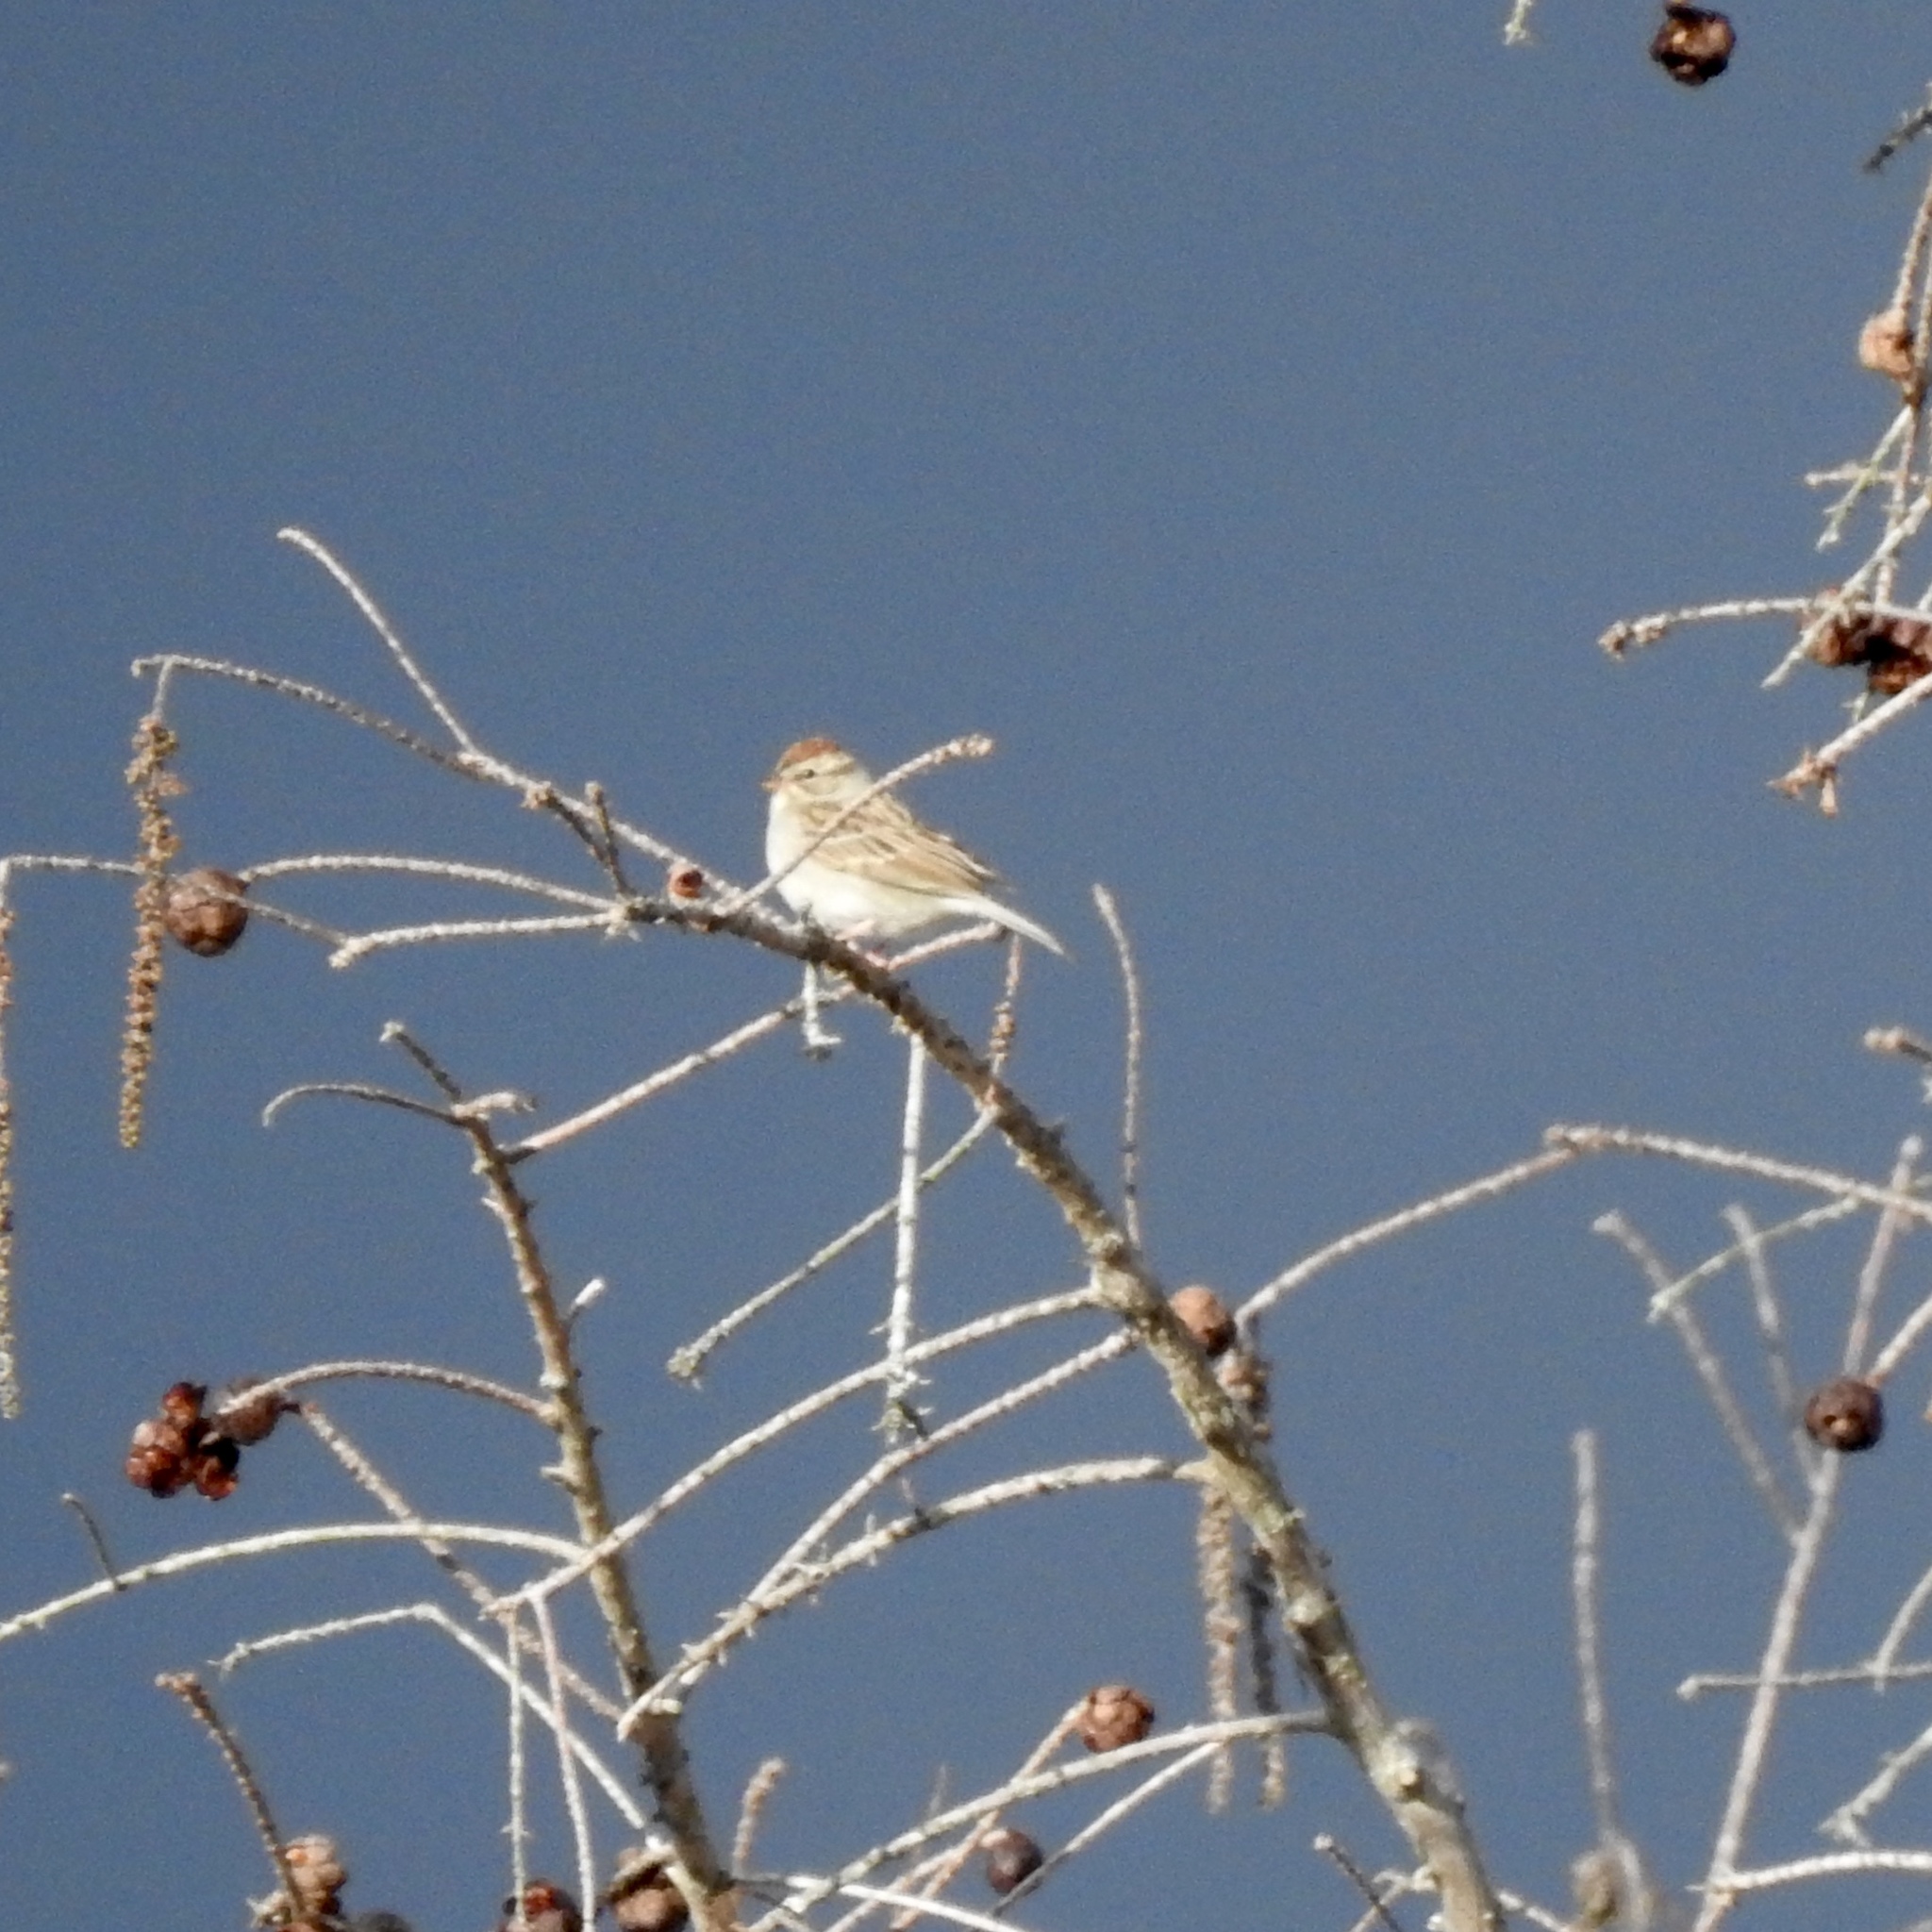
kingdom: Animalia
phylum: Chordata
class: Aves
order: Passeriformes
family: Passerellidae
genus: Spizella
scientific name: Spizella passerina
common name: Chipping sparrow
